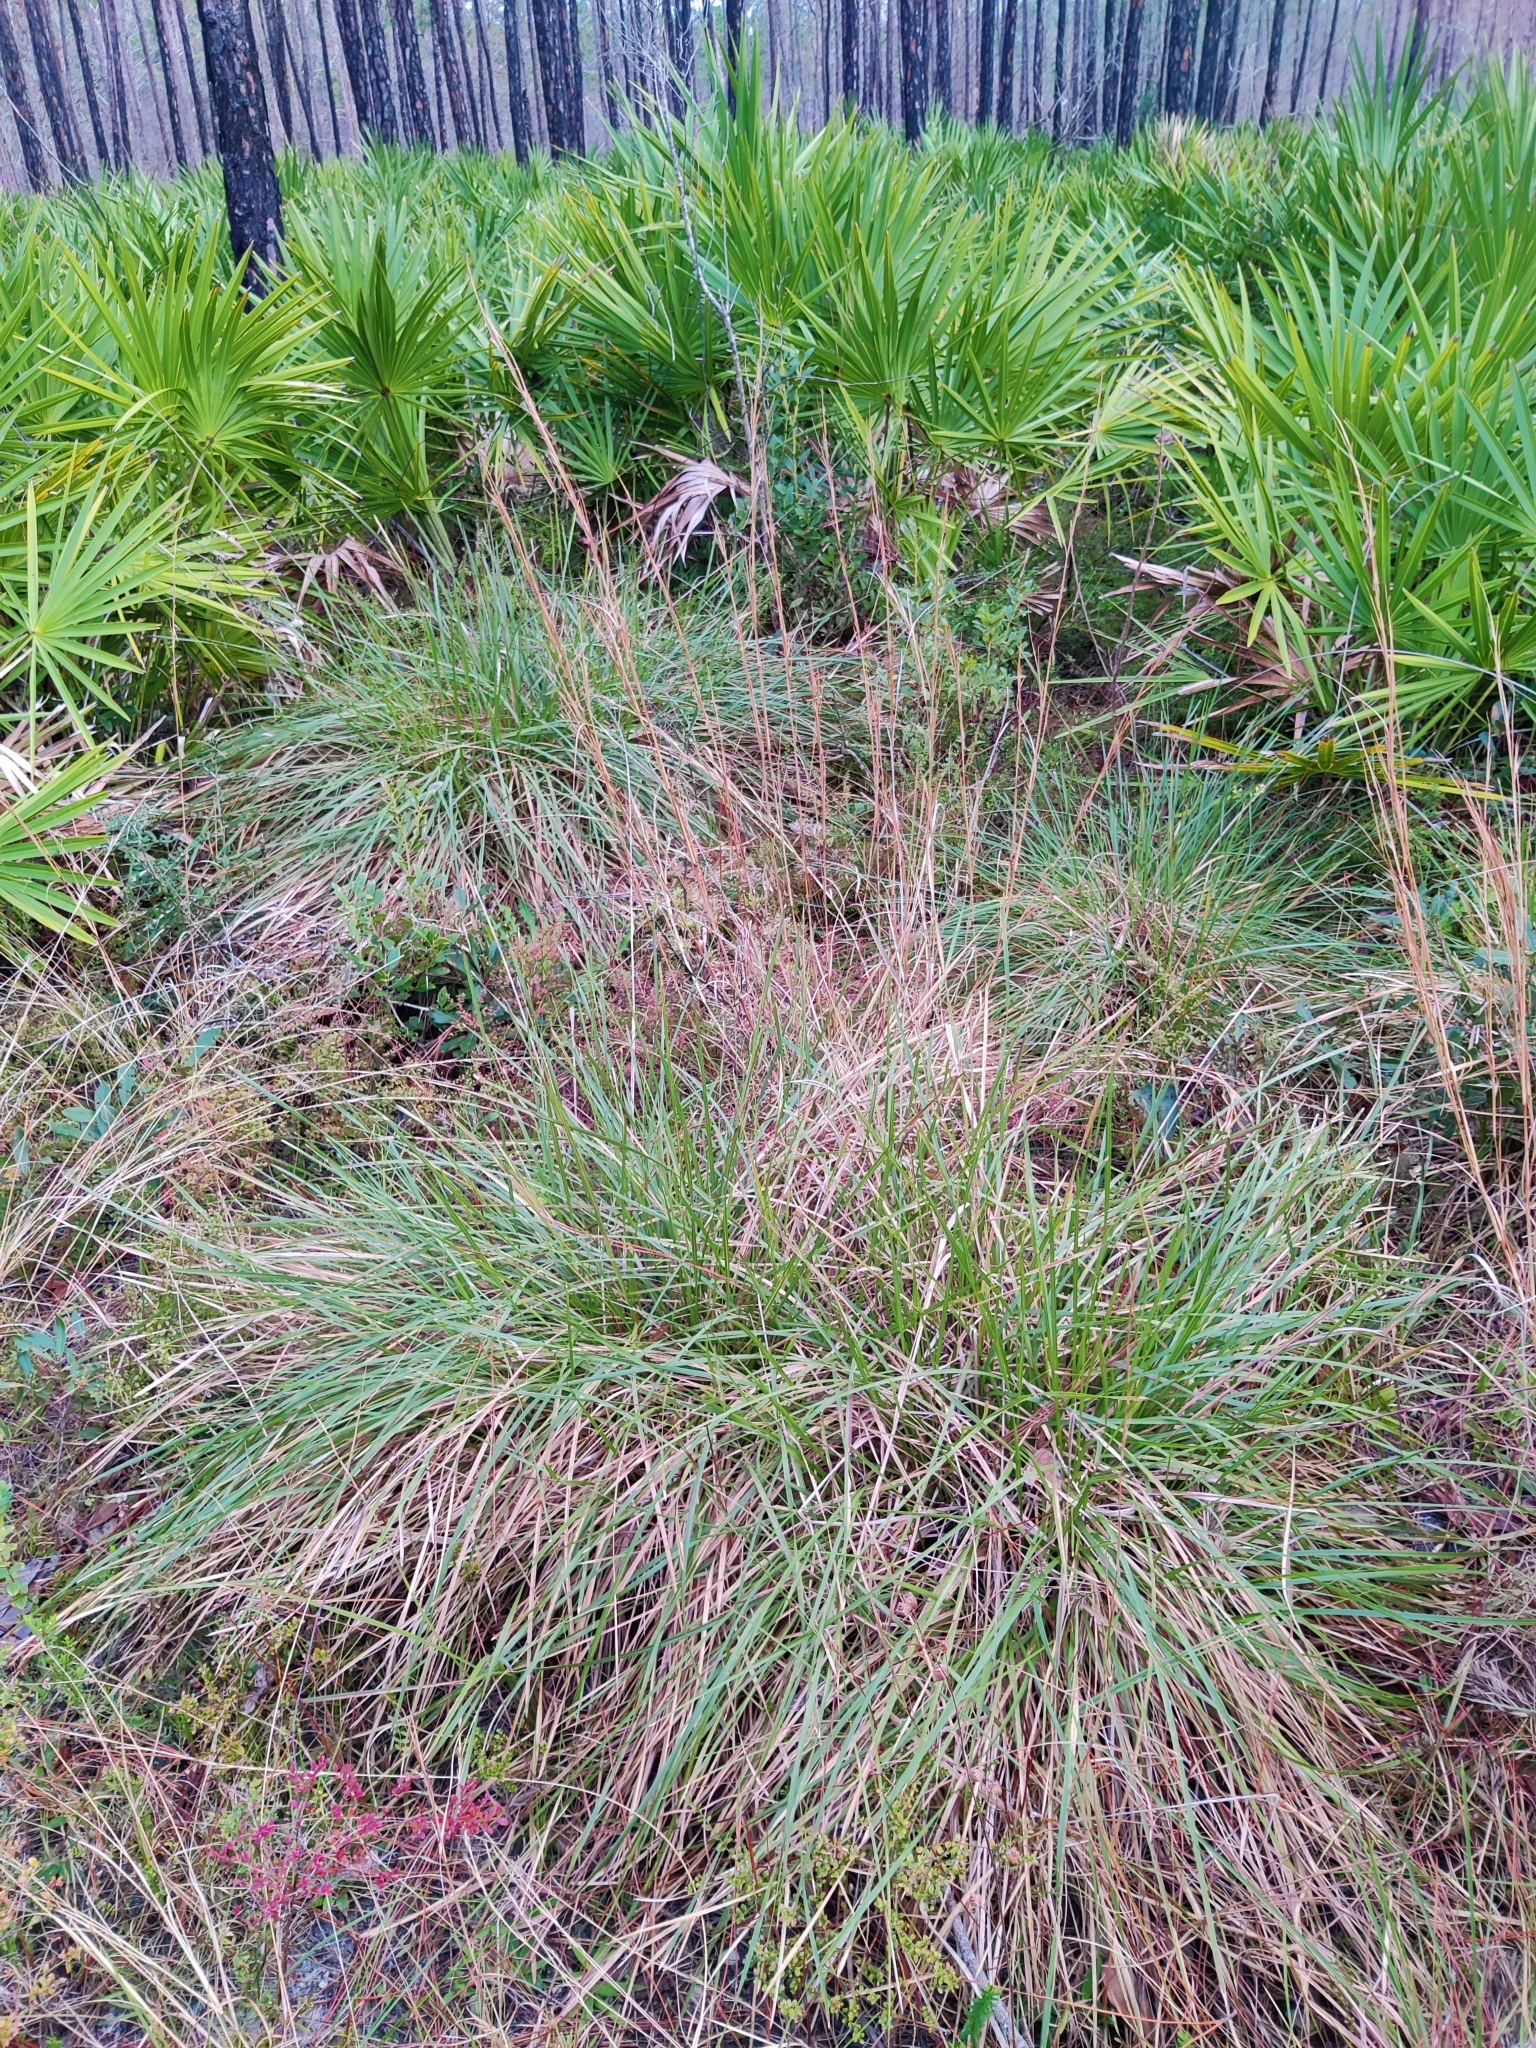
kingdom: Plantae
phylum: Tracheophyta
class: Liliopsida
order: Poales
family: Poaceae
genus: Sporobolus
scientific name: Sporobolus floridanus
